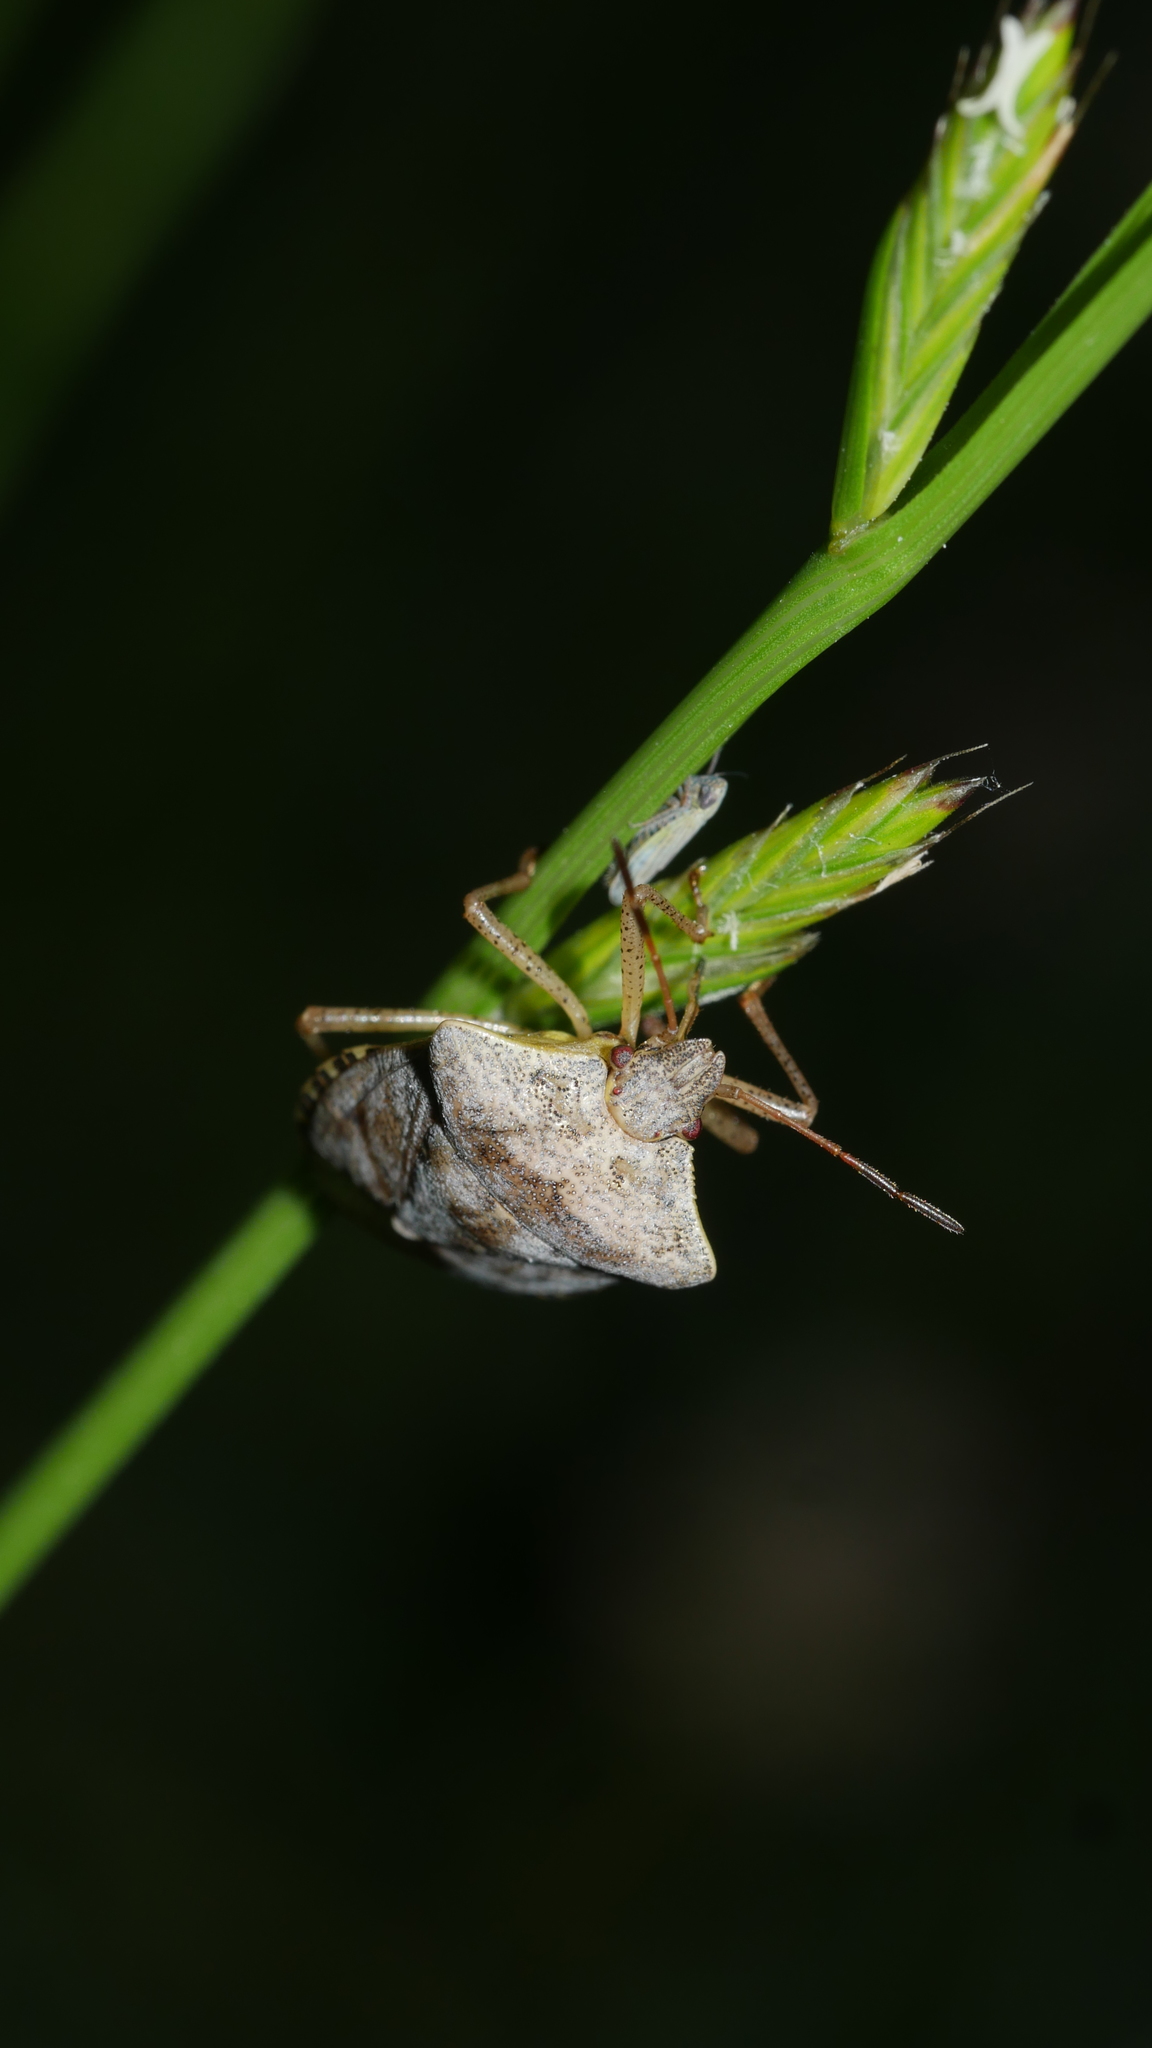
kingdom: Animalia
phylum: Arthropoda
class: Insecta
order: Hemiptera
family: Pentatomidae
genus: Euschistus
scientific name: Euschistus
